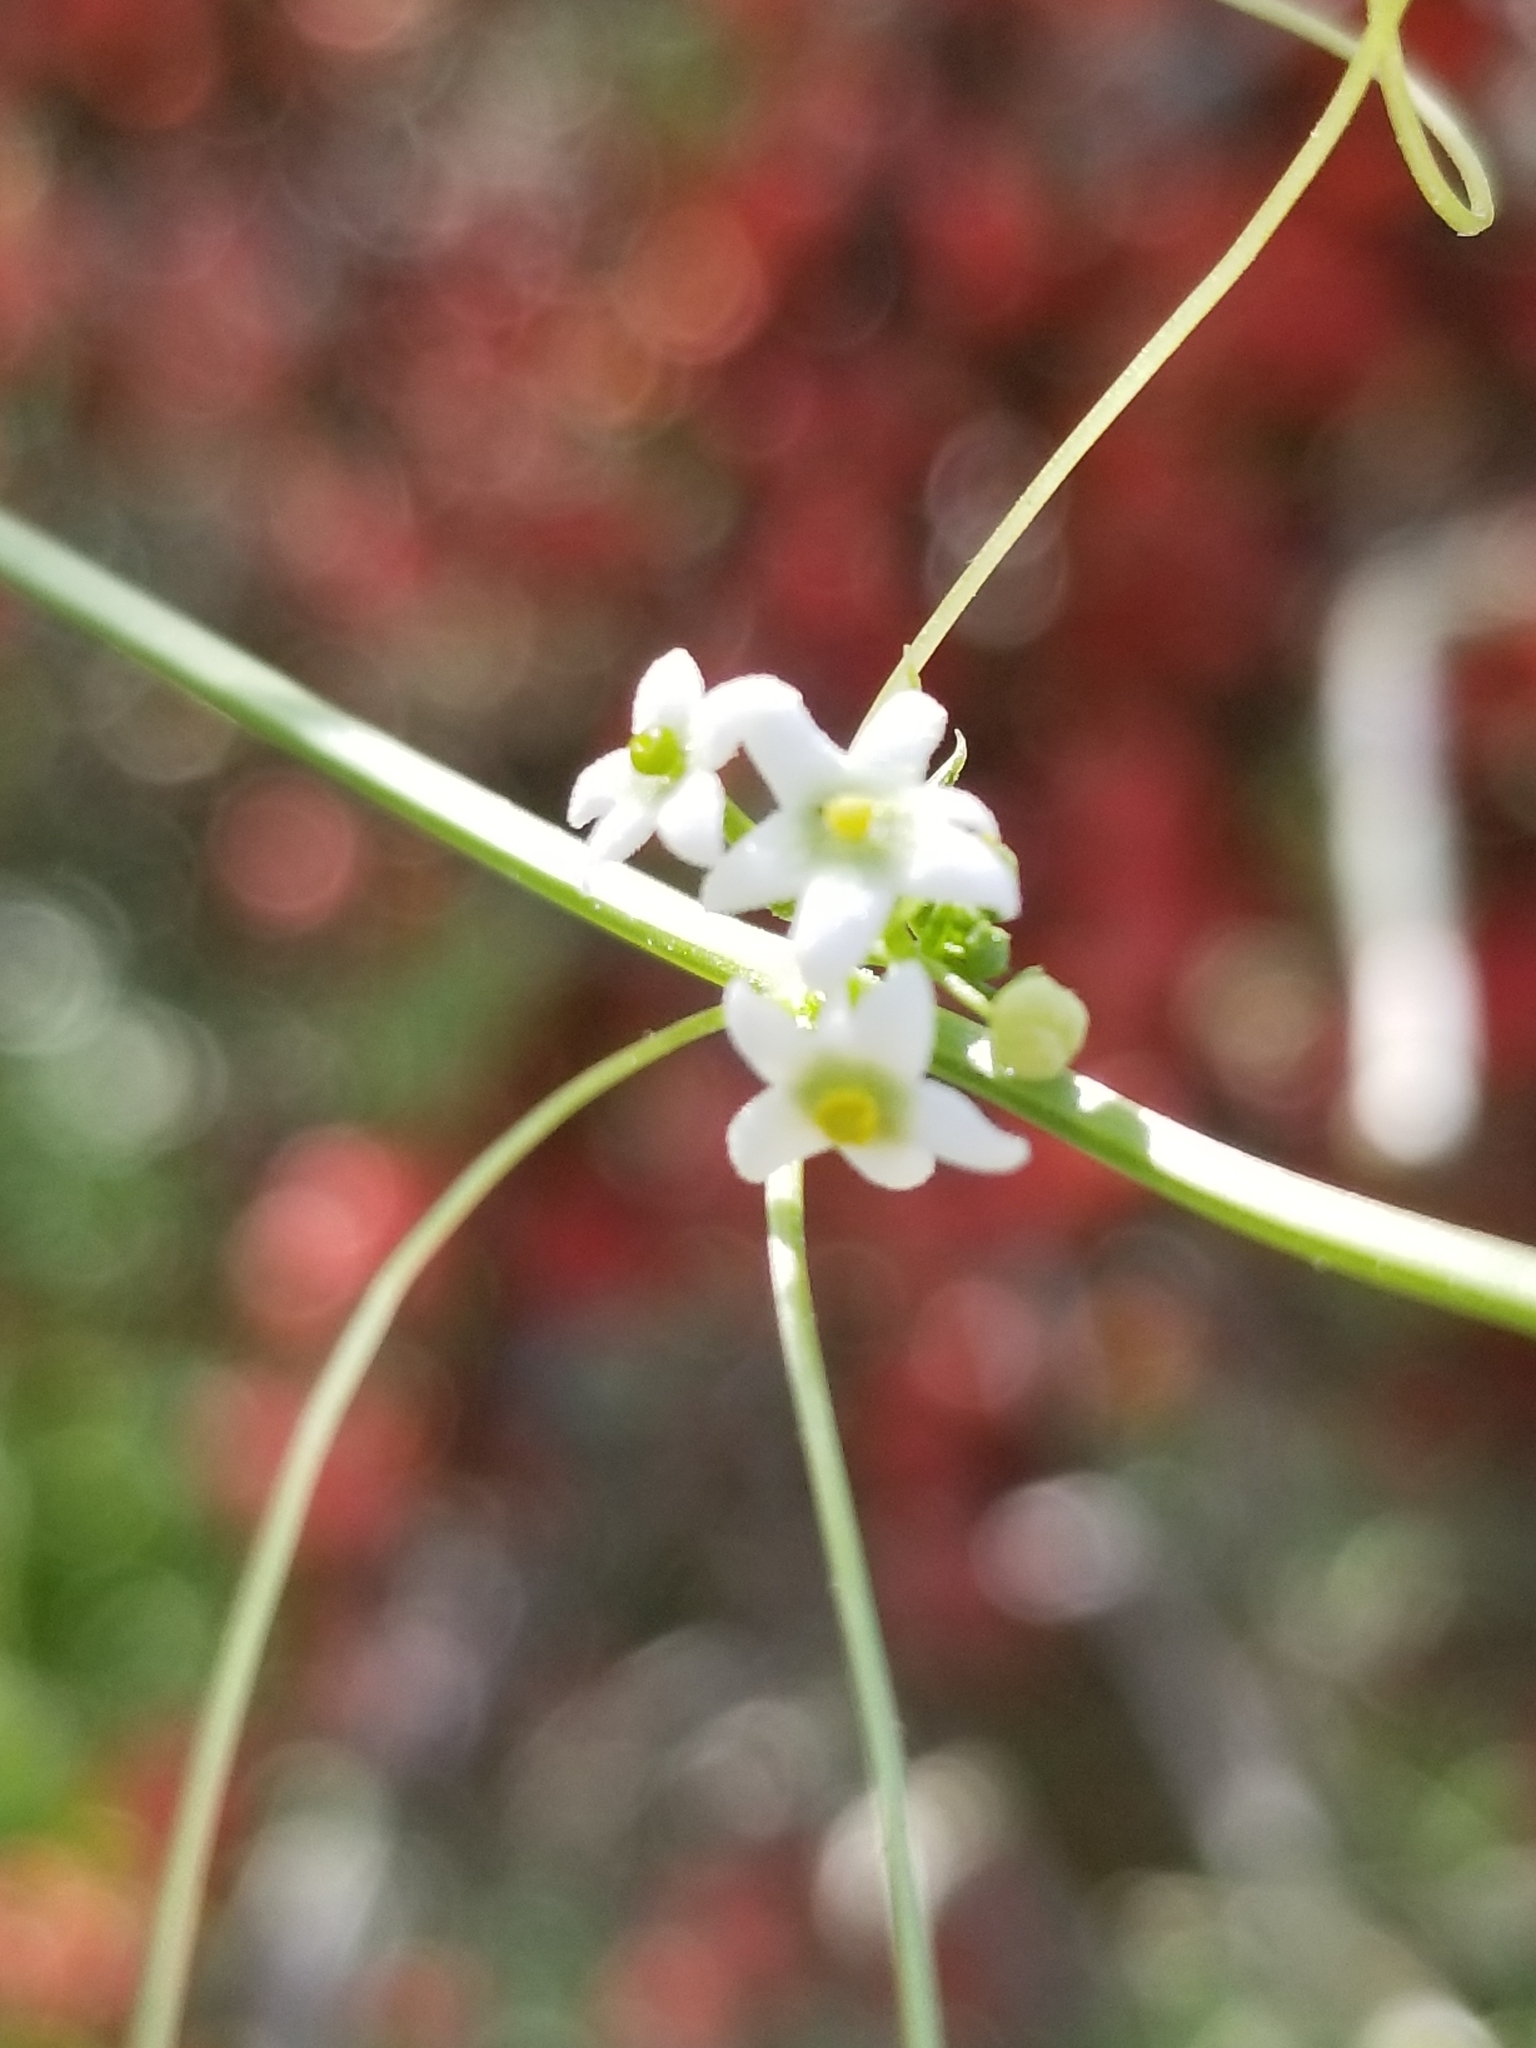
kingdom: Plantae
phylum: Tracheophyta
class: Magnoliopsida
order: Cucurbitales
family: Cucurbitaceae
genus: Echinopepon
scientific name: Echinopepon bigelovii
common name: Desert starvine
